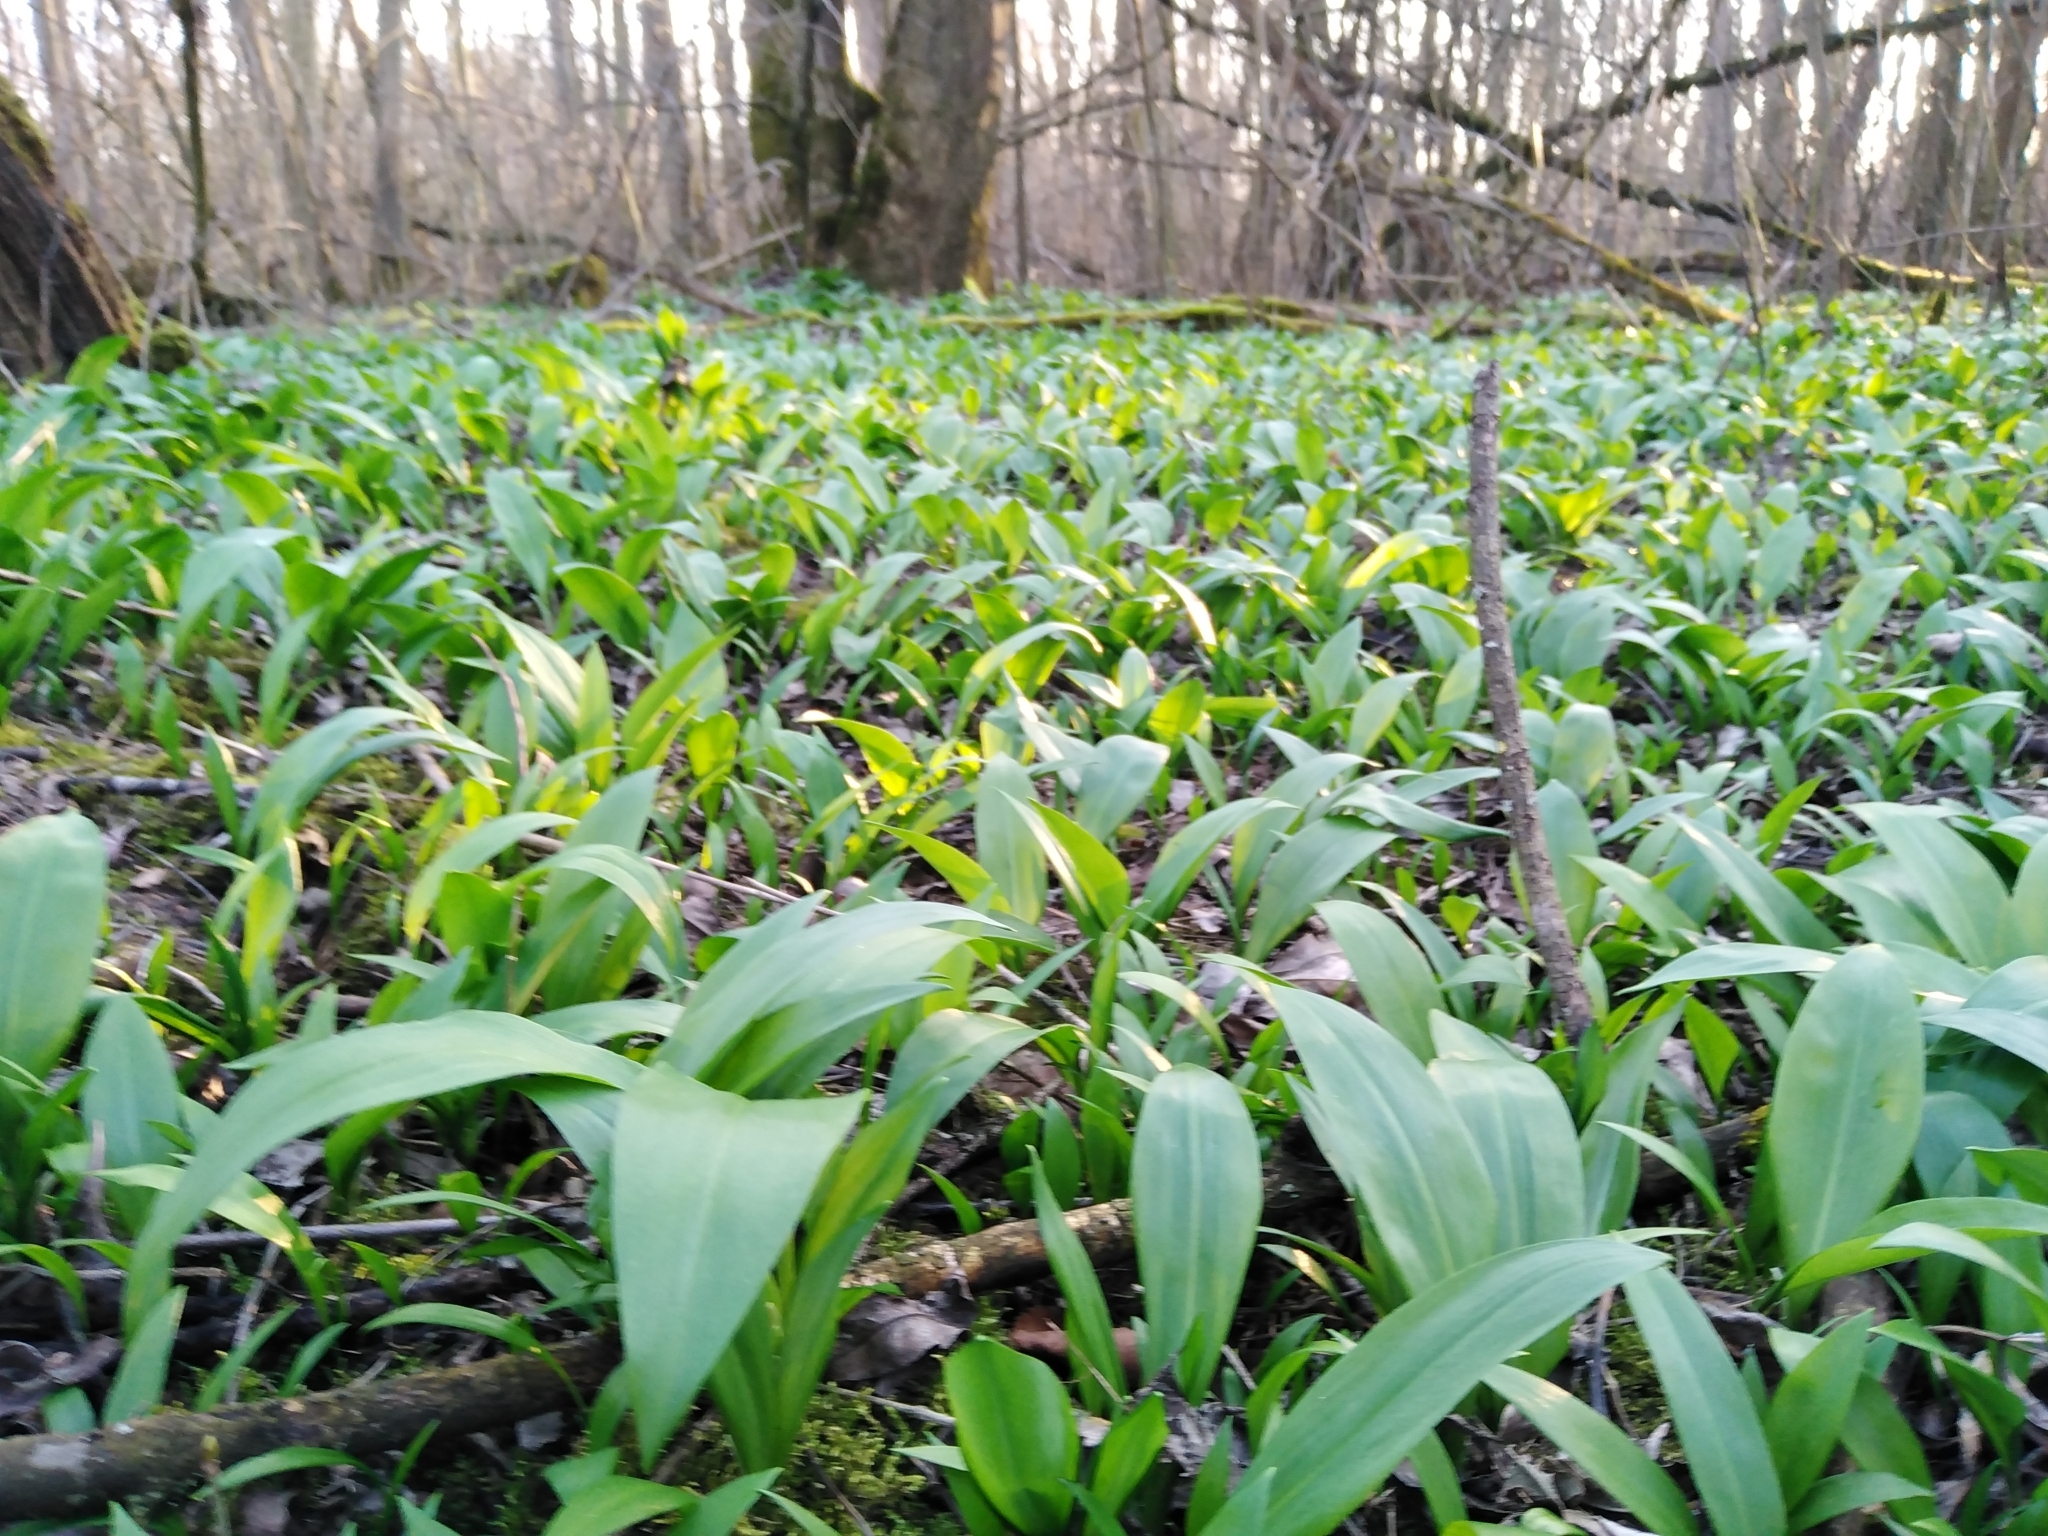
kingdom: Plantae
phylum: Tracheophyta
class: Liliopsida
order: Asparagales
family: Amaryllidaceae
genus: Allium
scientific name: Allium ursinum
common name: Ramsons
